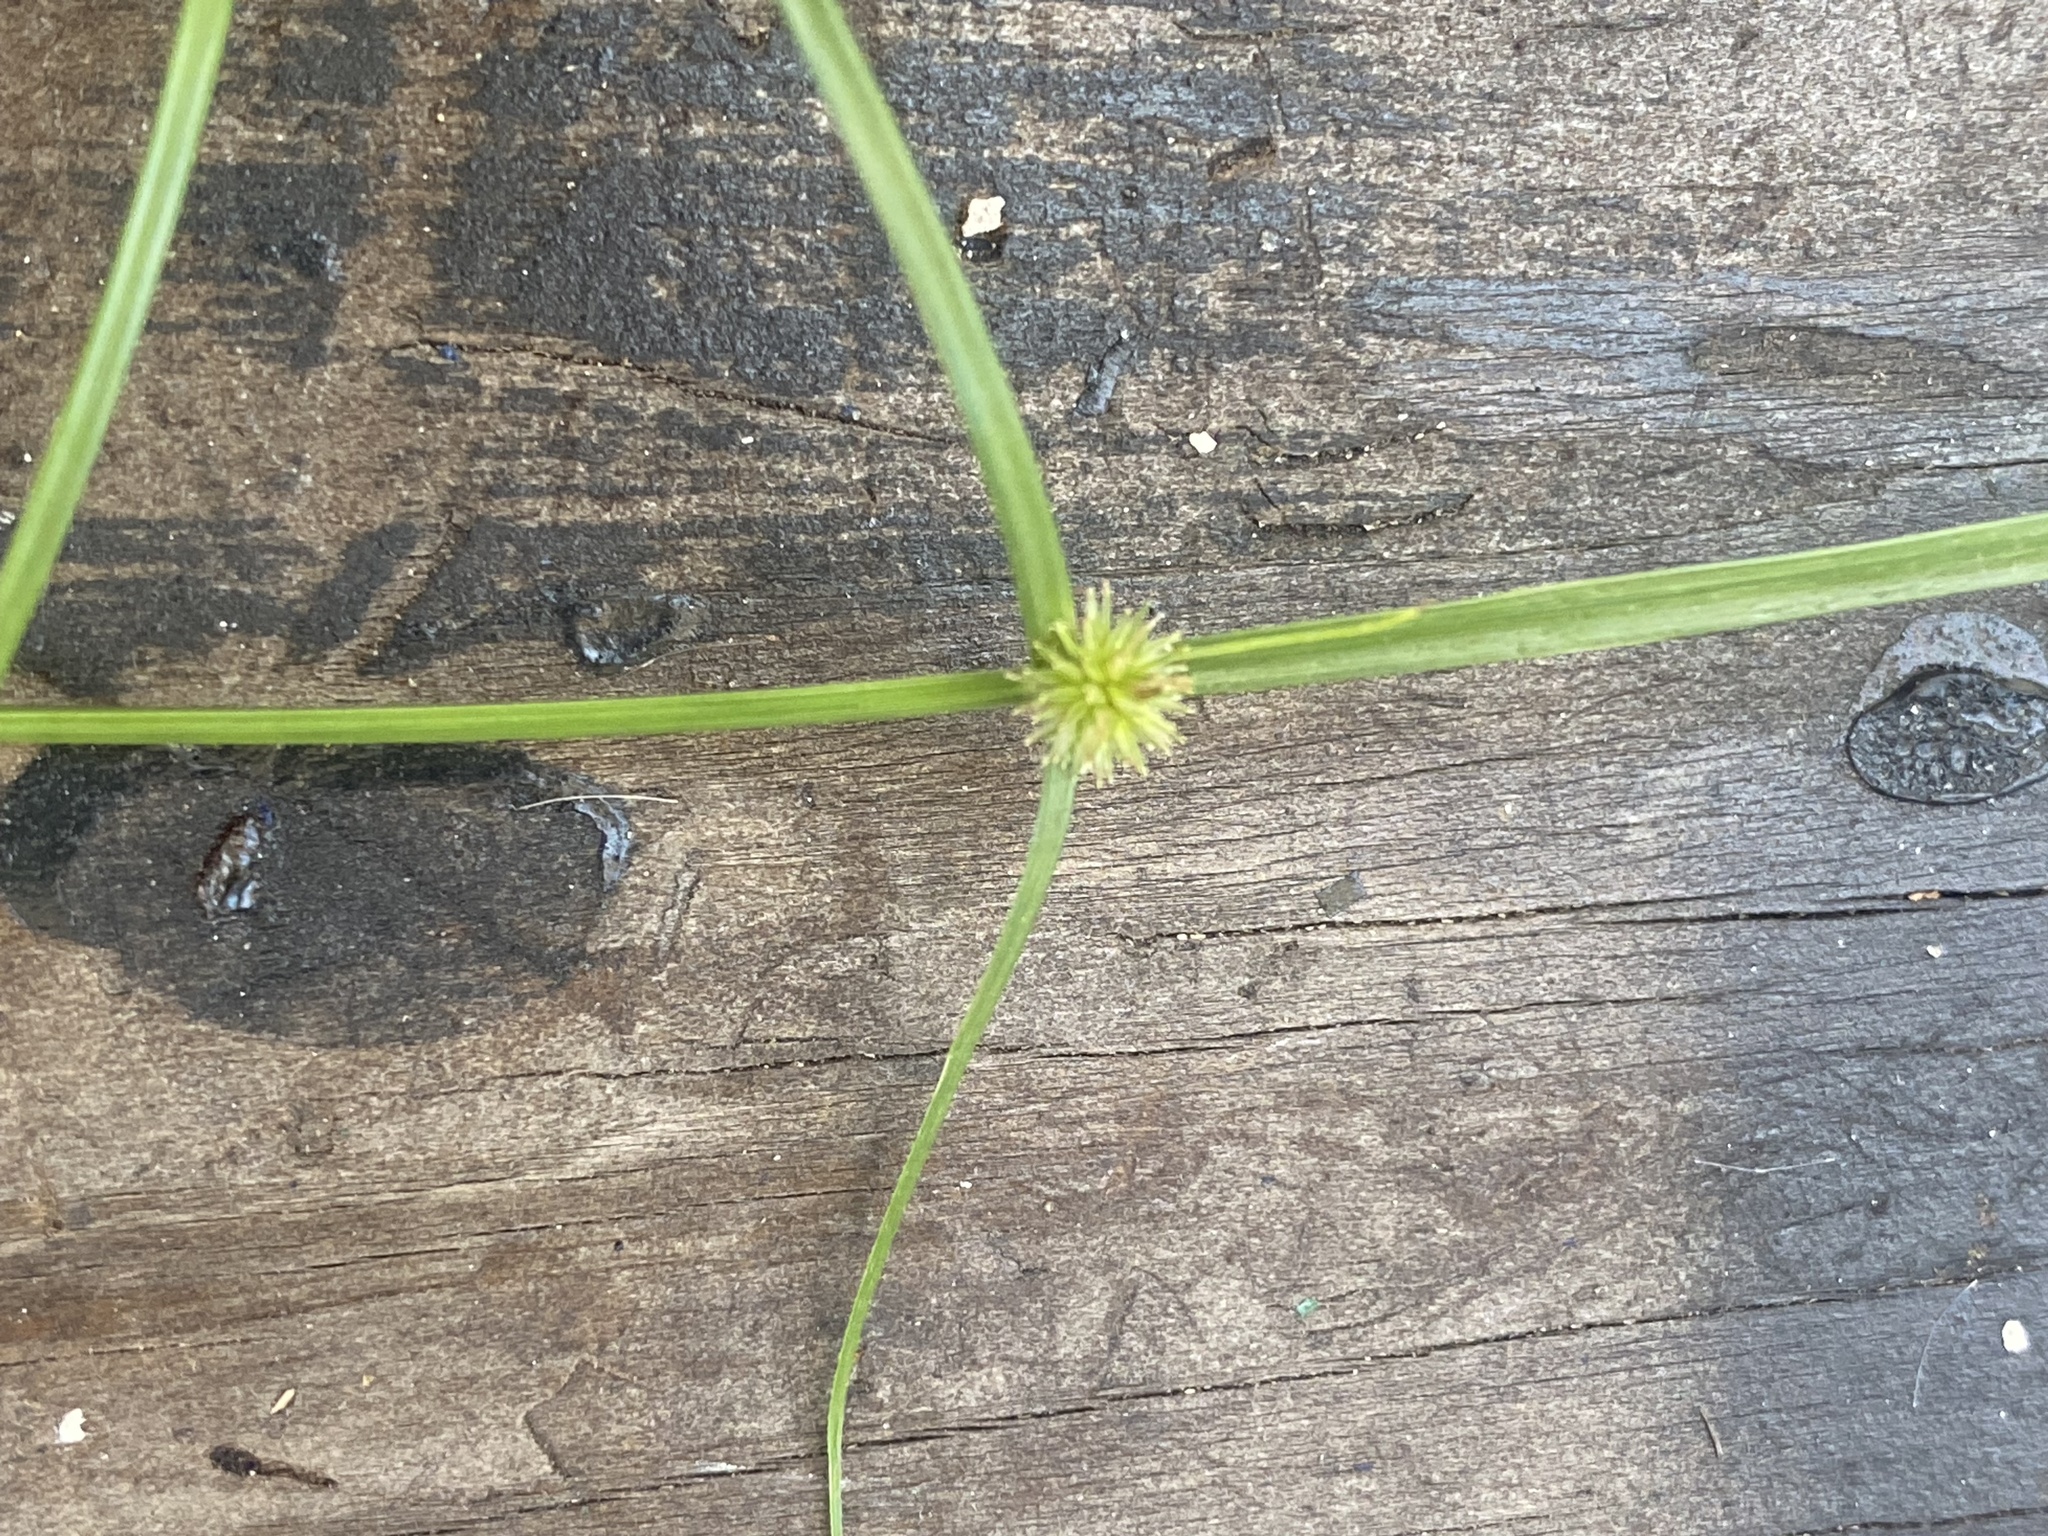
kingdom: Plantae
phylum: Tracheophyta
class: Liliopsida
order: Poales
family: Cyperaceae
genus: Cyperus
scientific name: Cyperus brevifolius
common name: Globe kyllinga
